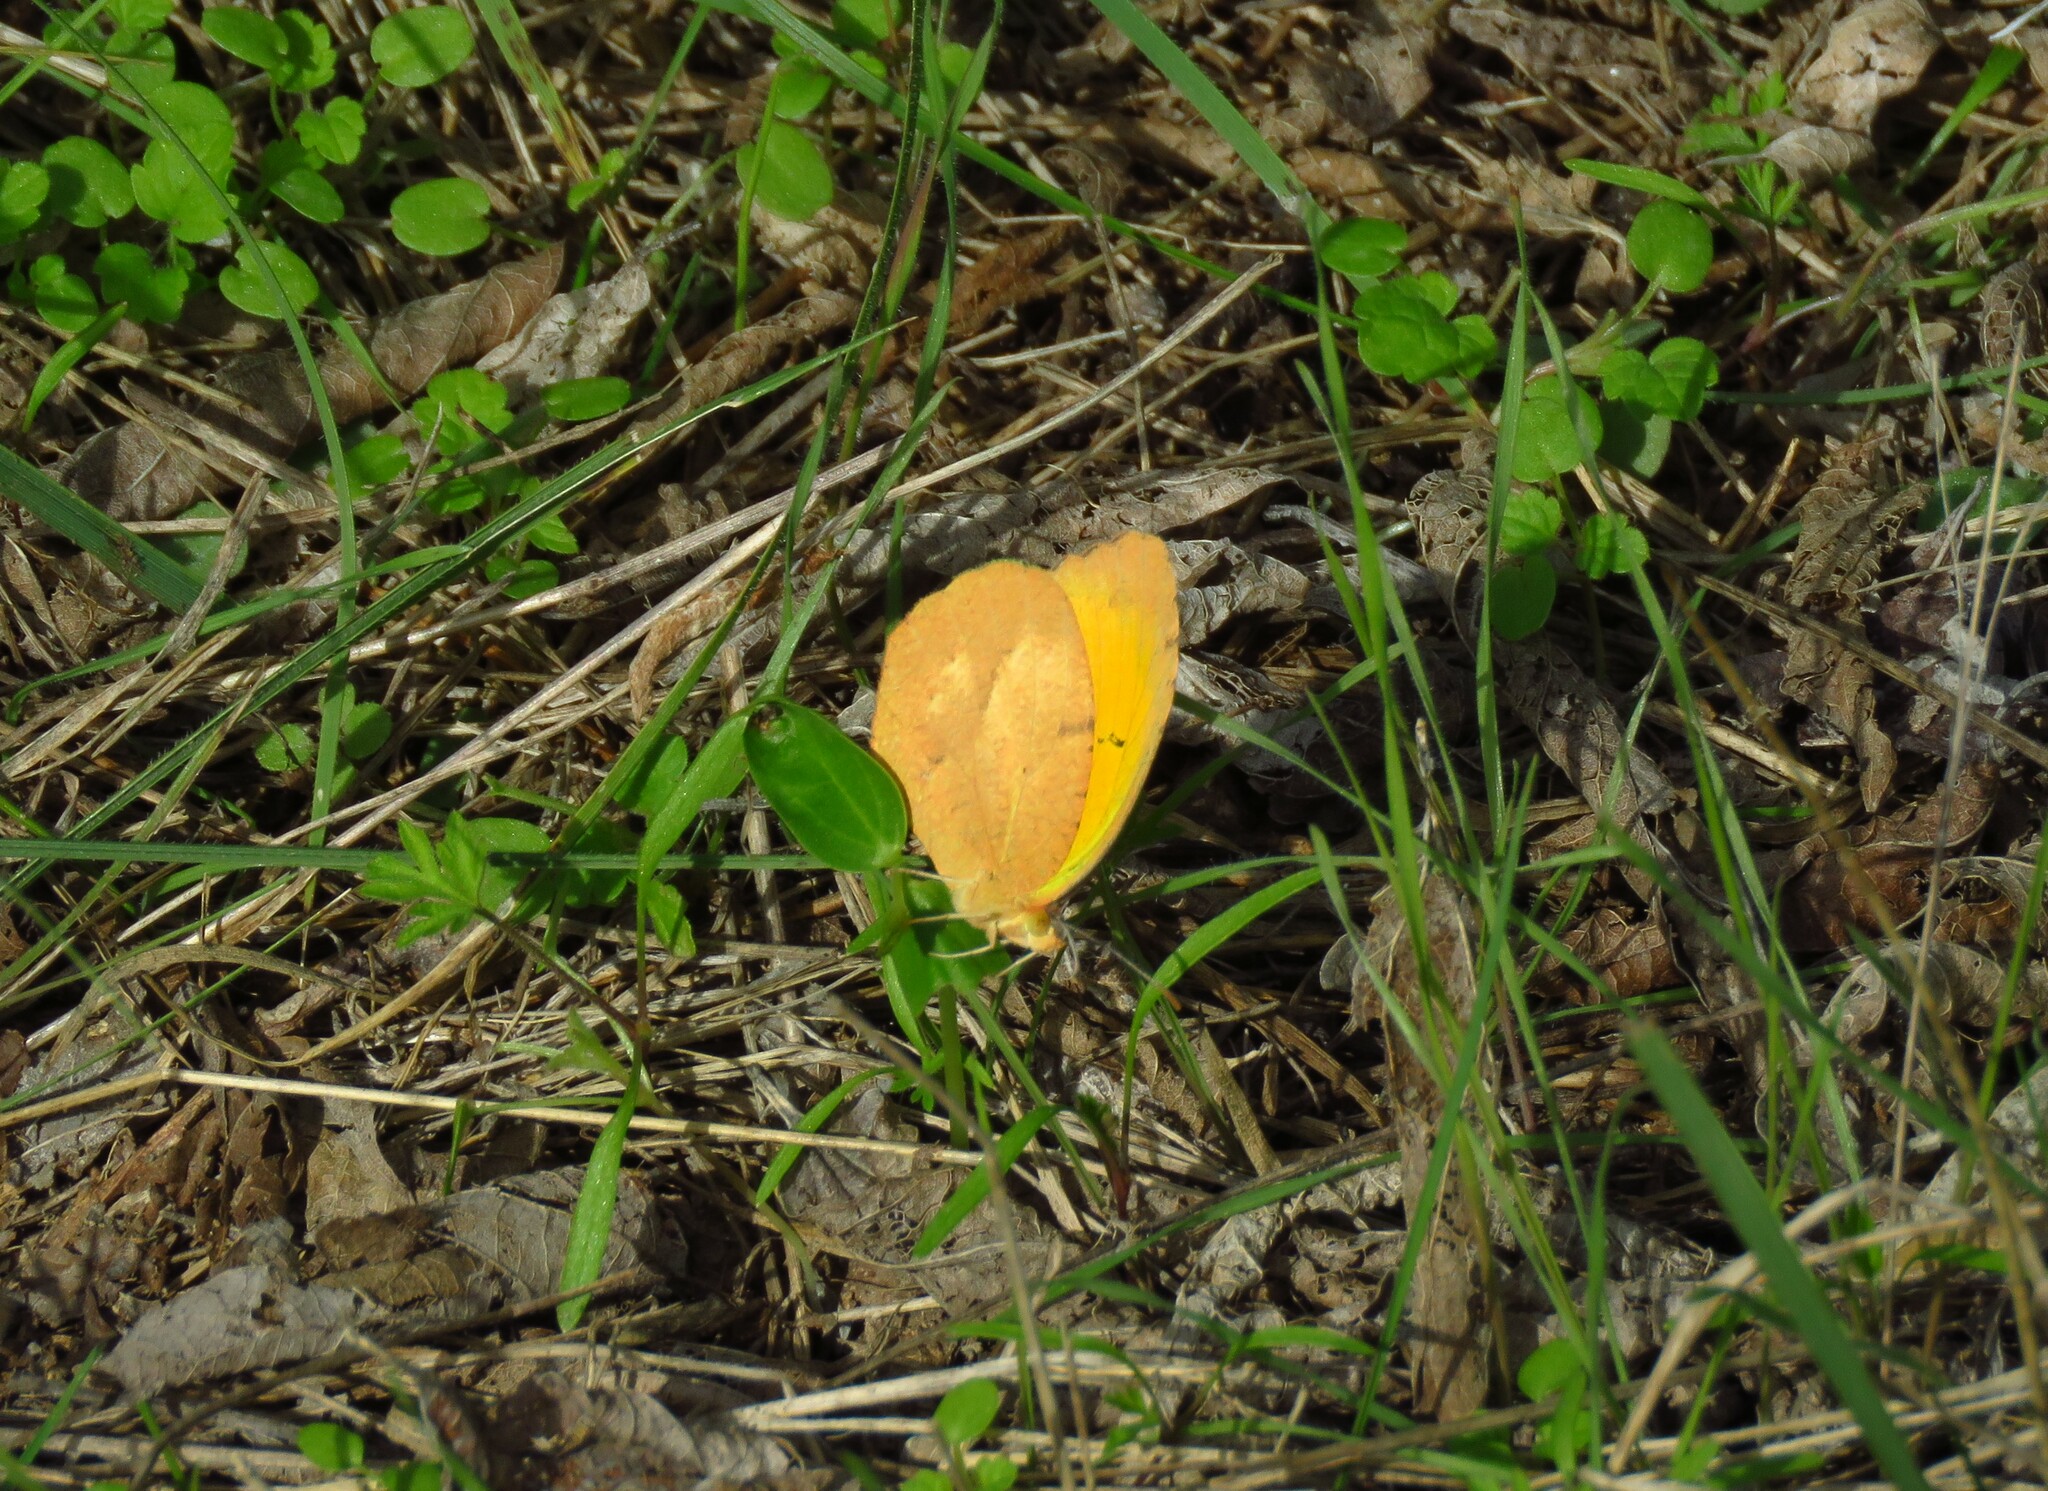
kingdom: Animalia
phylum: Arthropoda
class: Insecta
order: Lepidoptera
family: Pieridae
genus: Abaeis
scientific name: Abaeis nicippe
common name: Sleepy orange
